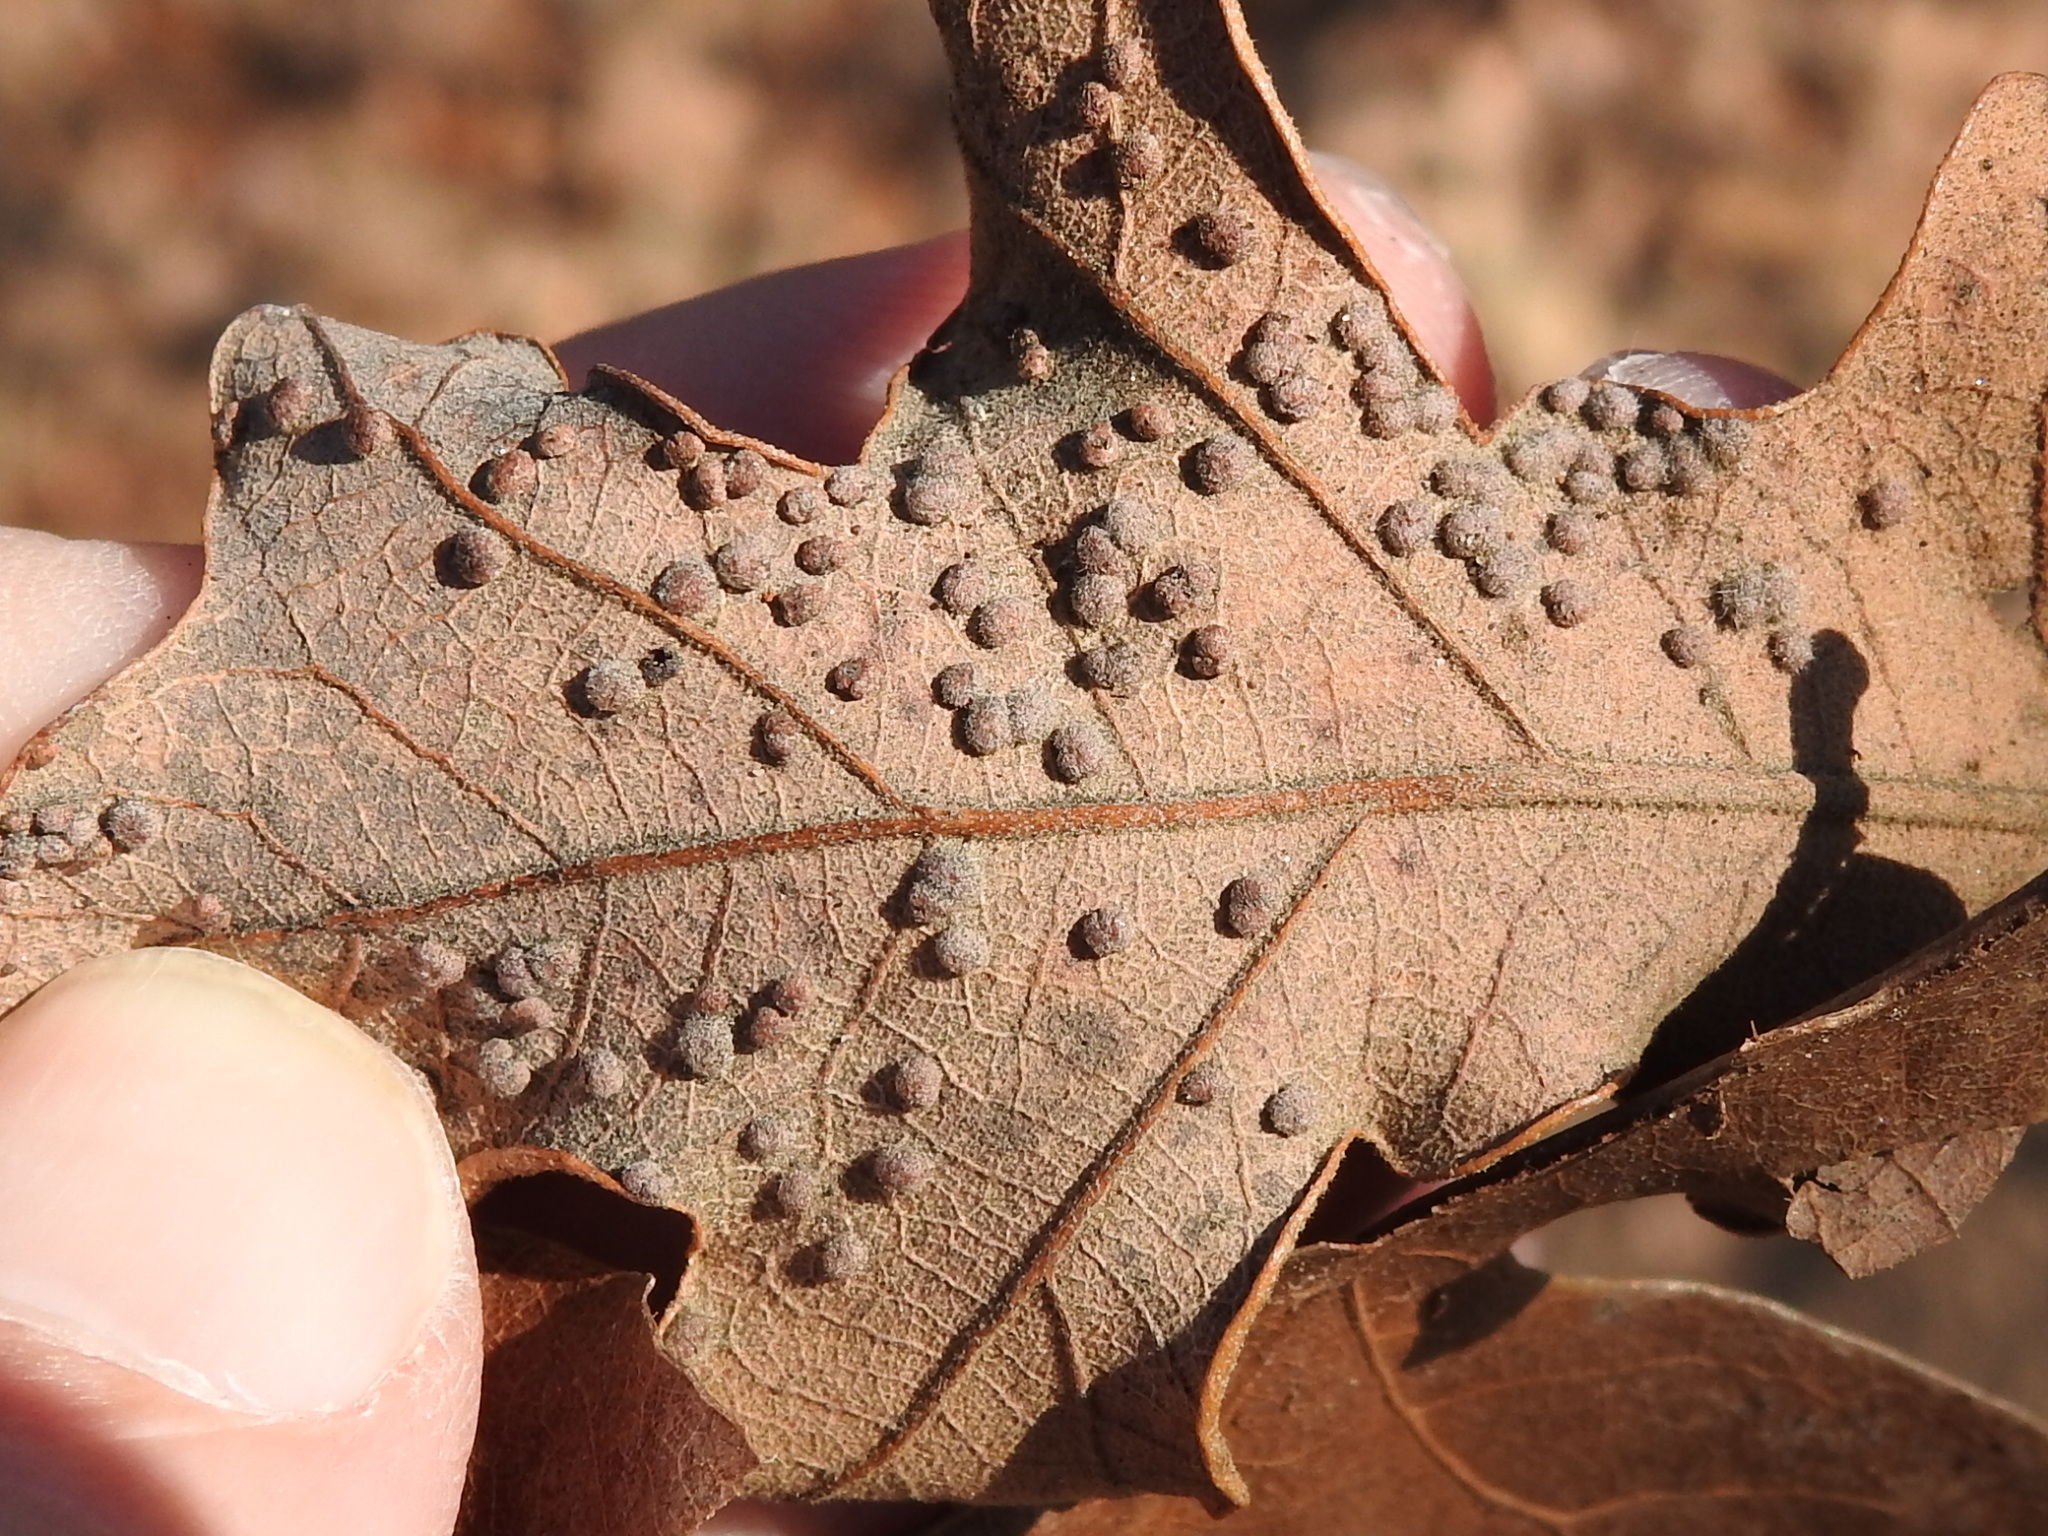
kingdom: Animalia
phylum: Arthropoda
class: Insecta
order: Hymenoptera
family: Cynipidae
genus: Neuroterus
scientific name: Neuroterus quercusverrucarum
